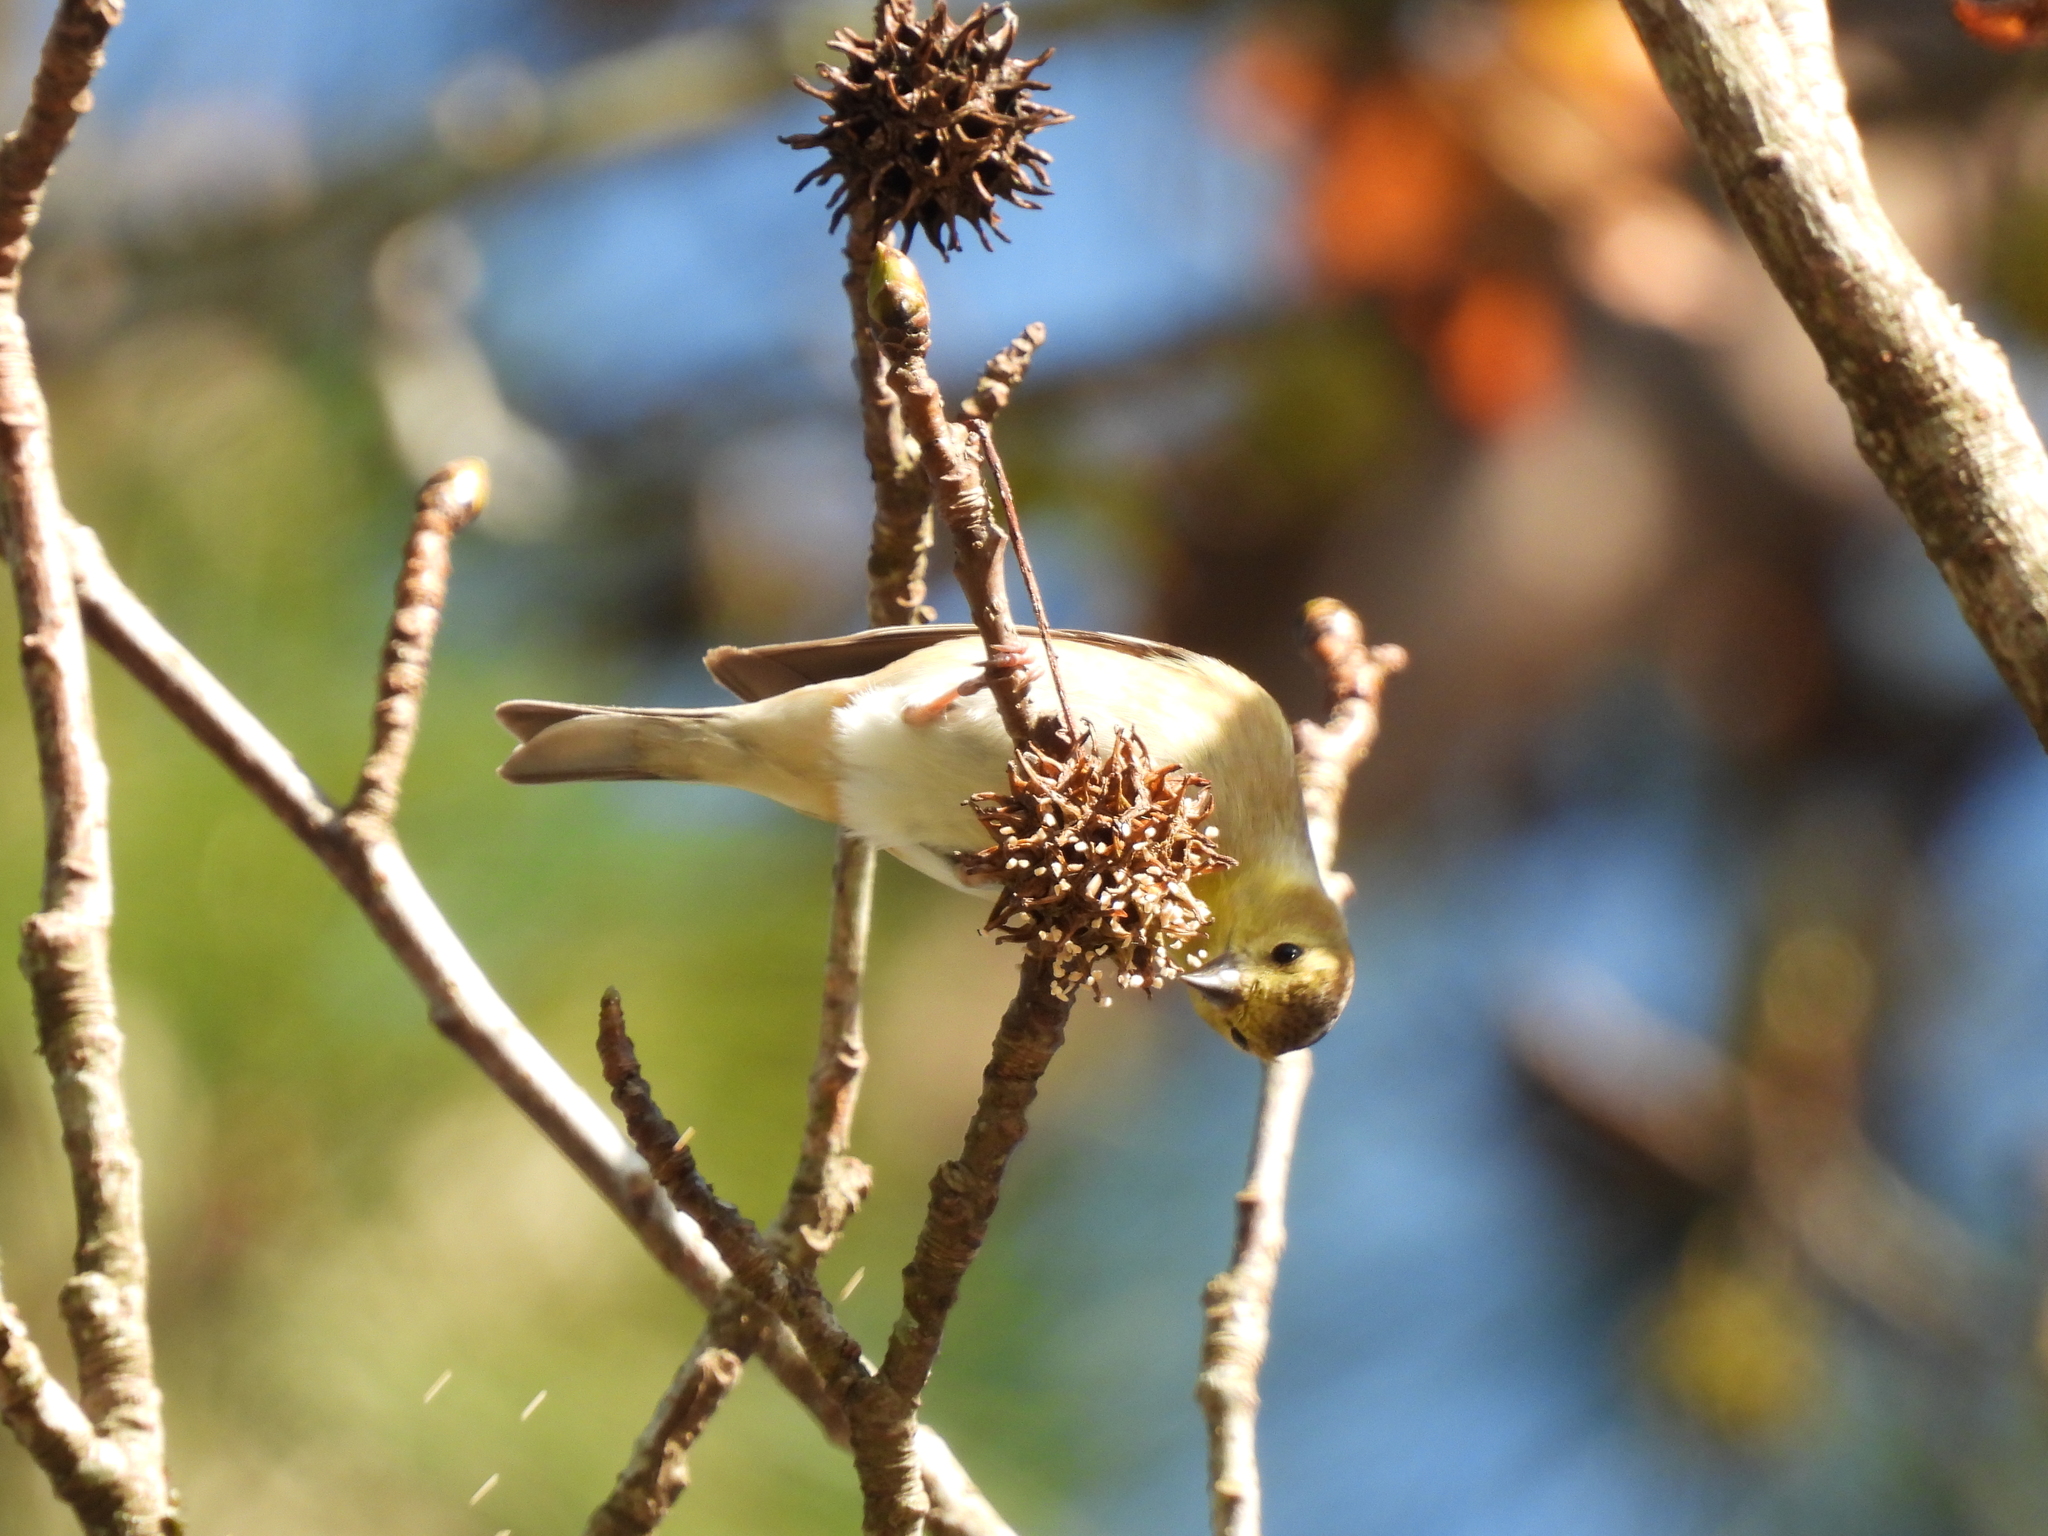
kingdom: Animalia
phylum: Chordata
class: Aves
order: Passeriformes
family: Fringillidae
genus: Spinus
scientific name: Spinus tristis
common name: American goldfinch
